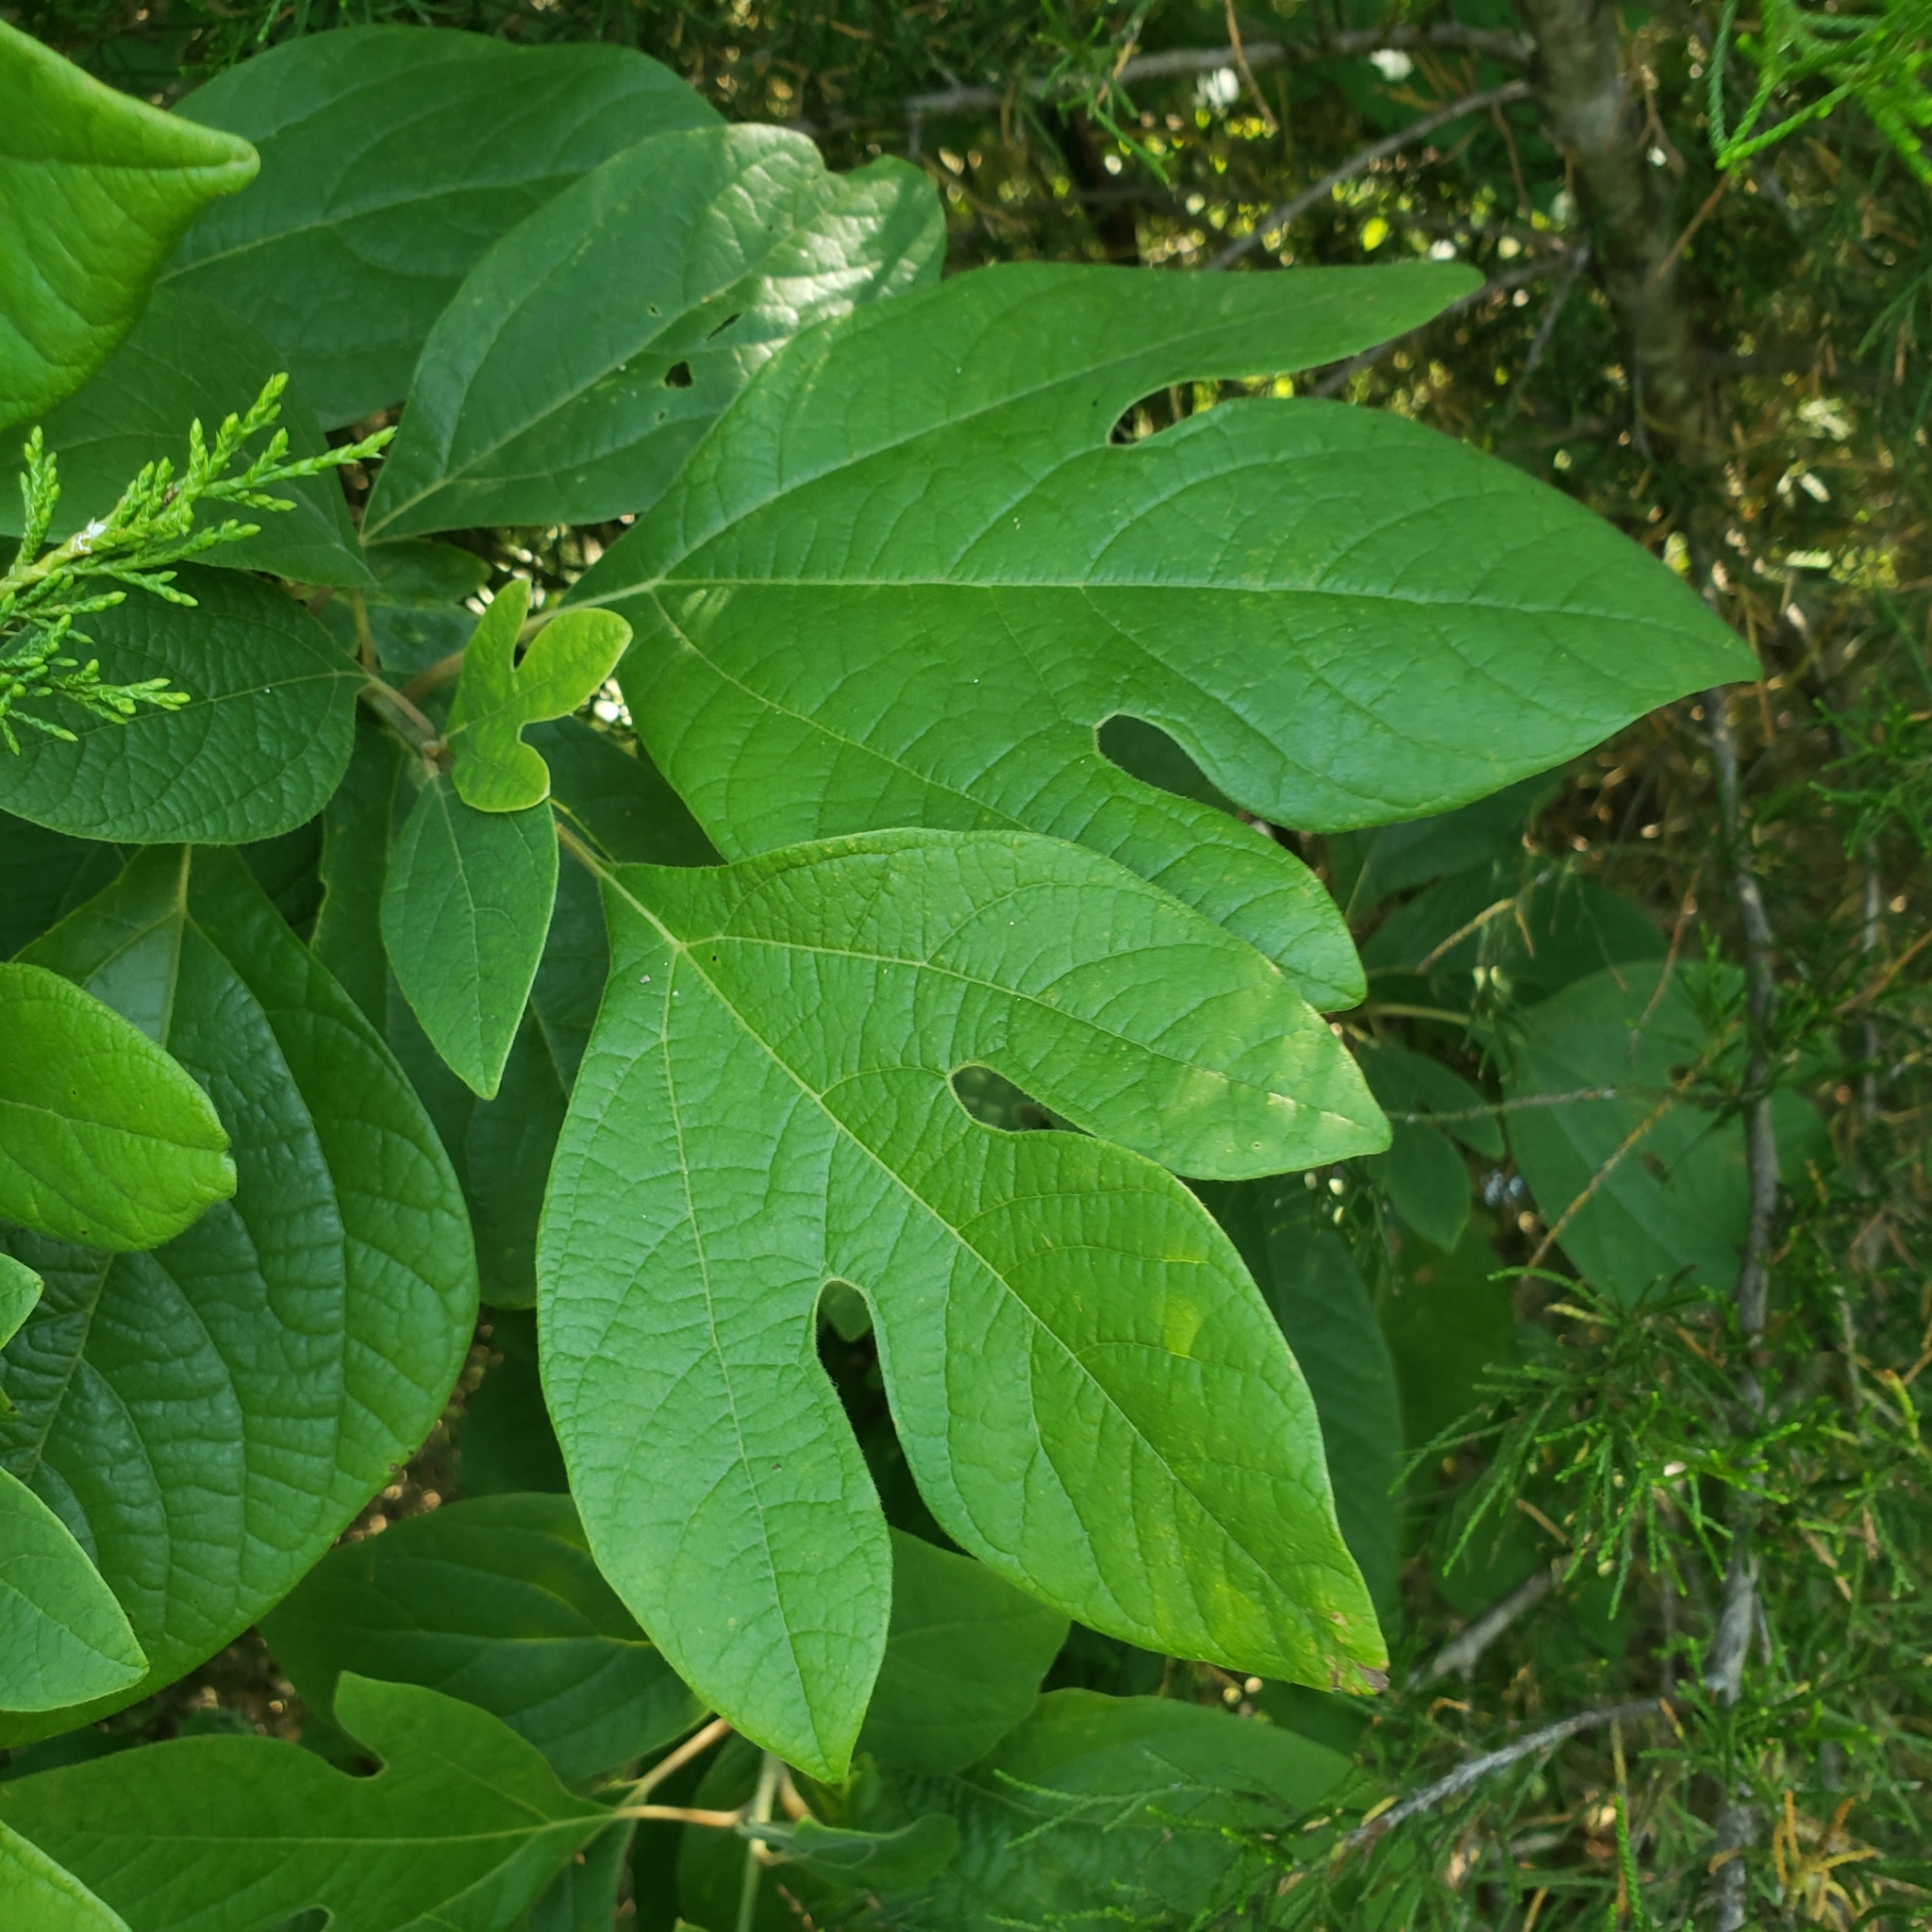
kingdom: Plantae
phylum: Tracheophyta
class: Magnoliopsida
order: Laurales
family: Lauraceae
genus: Sassafras
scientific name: Sassafras albidum
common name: Sassafras
